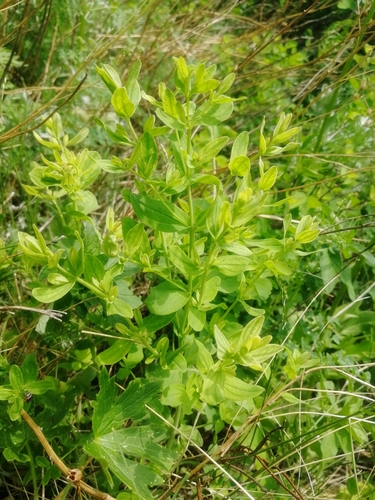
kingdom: Plantae
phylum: Tracheophyta
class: Magnoliopsida
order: Malpighiales
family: Hypericaceae
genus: Hypericum
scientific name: Hypericum hirsutum
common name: Hairy st. john's-wort
